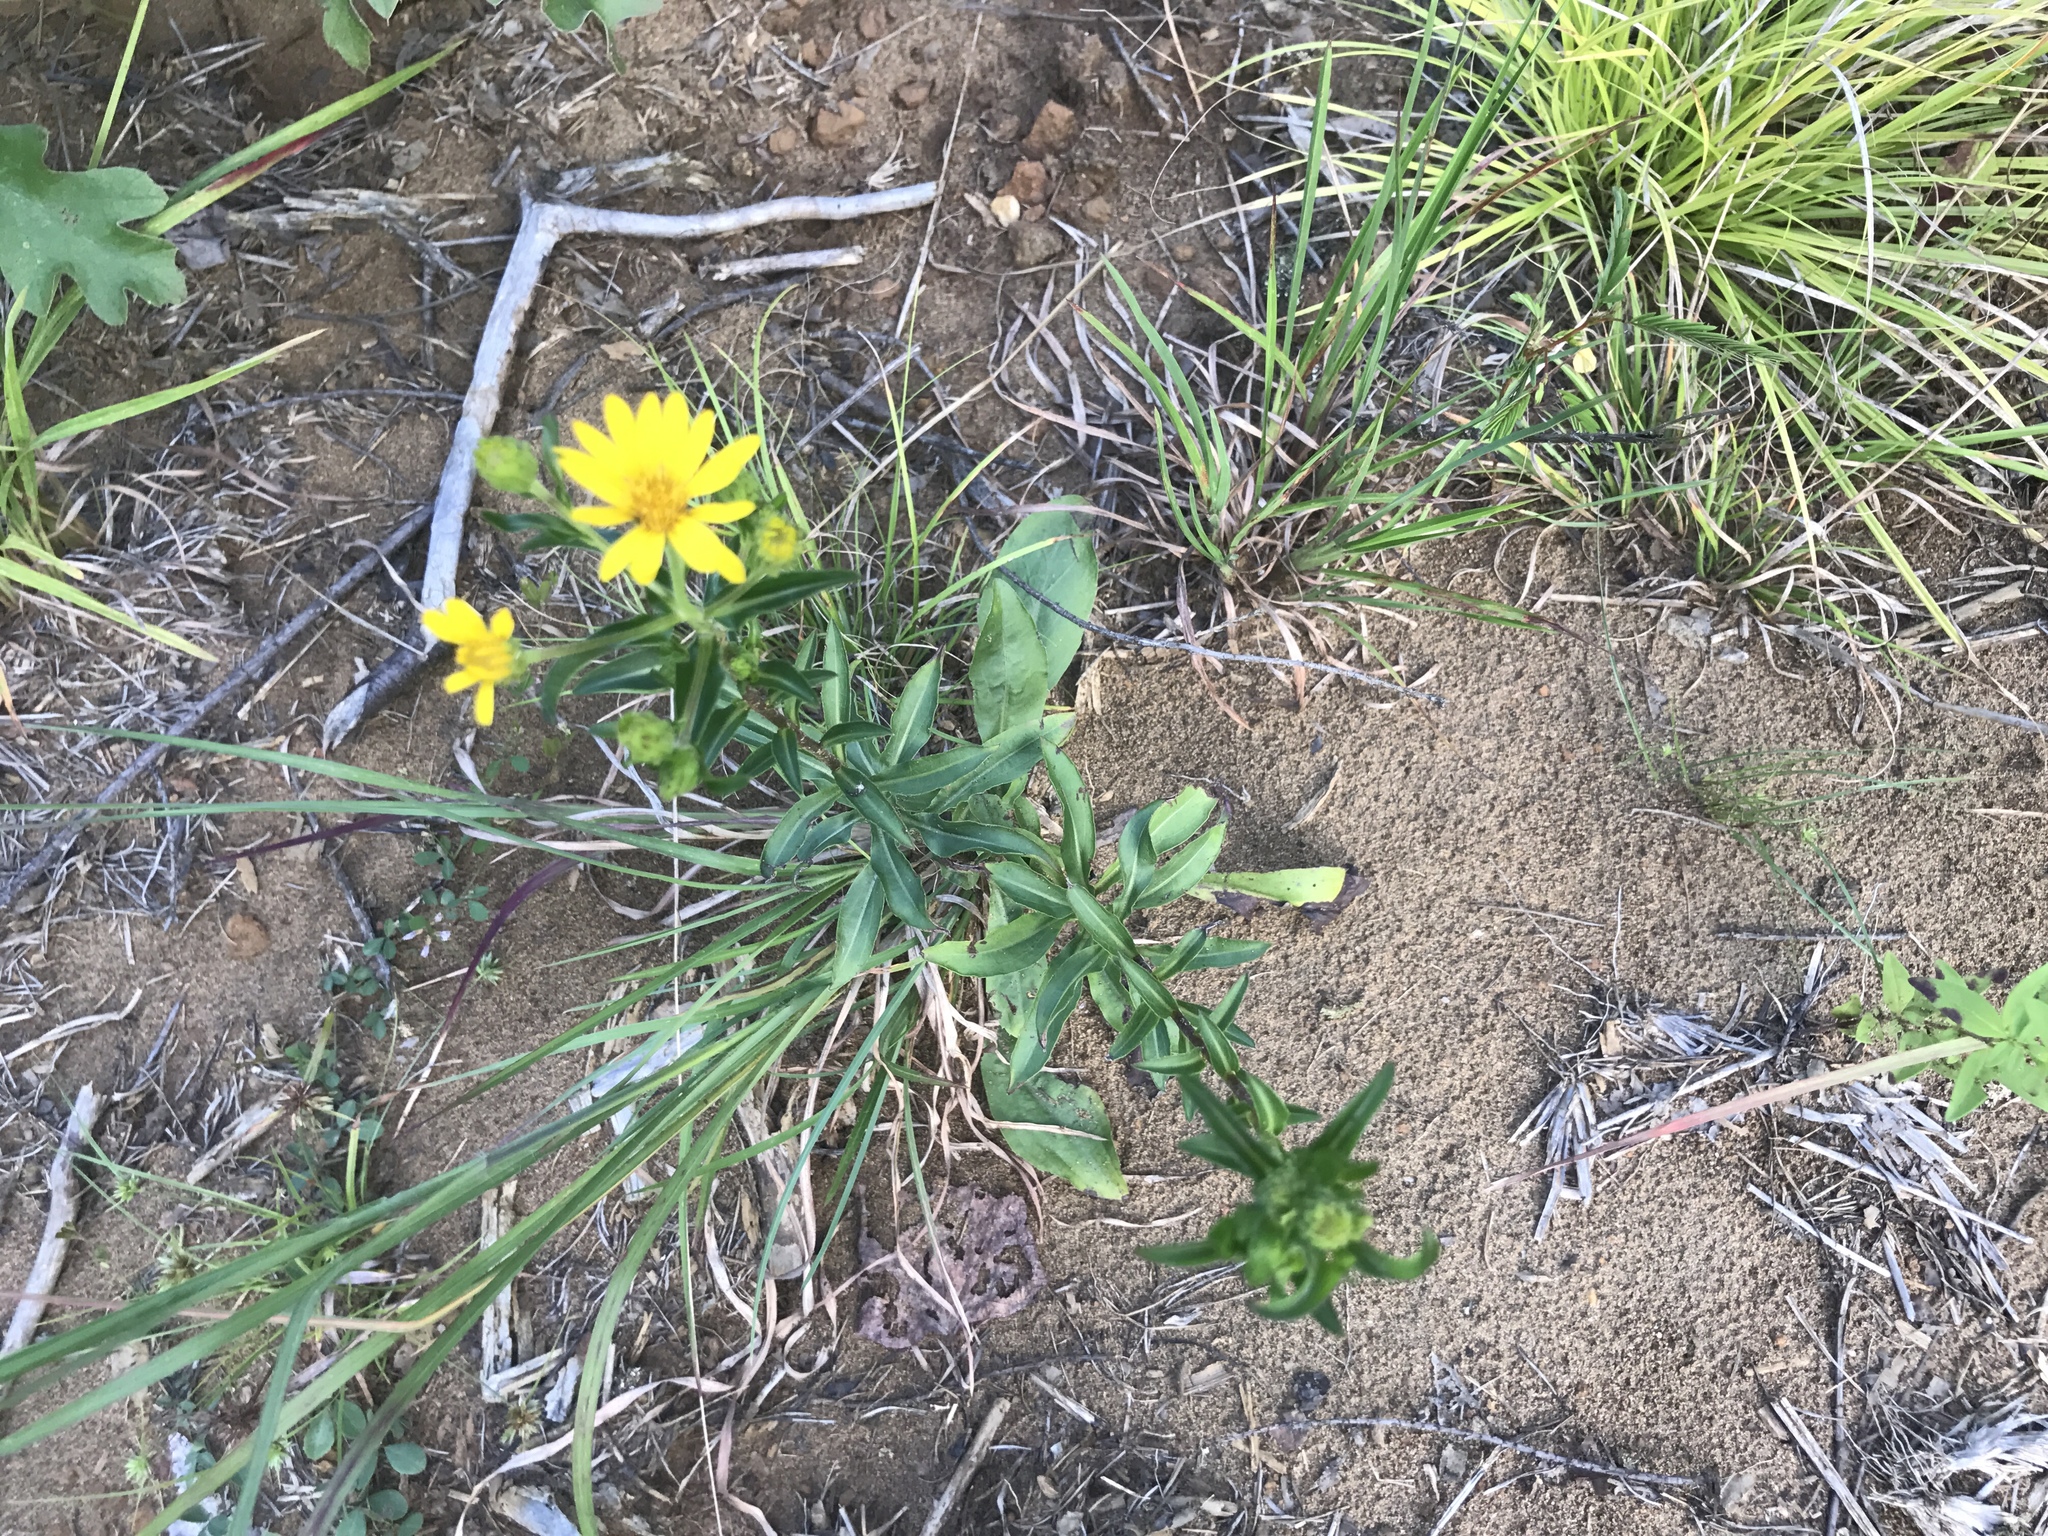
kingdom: Plantae
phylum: Tracheophyta
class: Magnoliopsida
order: Asterales
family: Asteraceae
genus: Chrysopsis
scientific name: Chrysopsis mariana
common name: Maryland golden-aster
